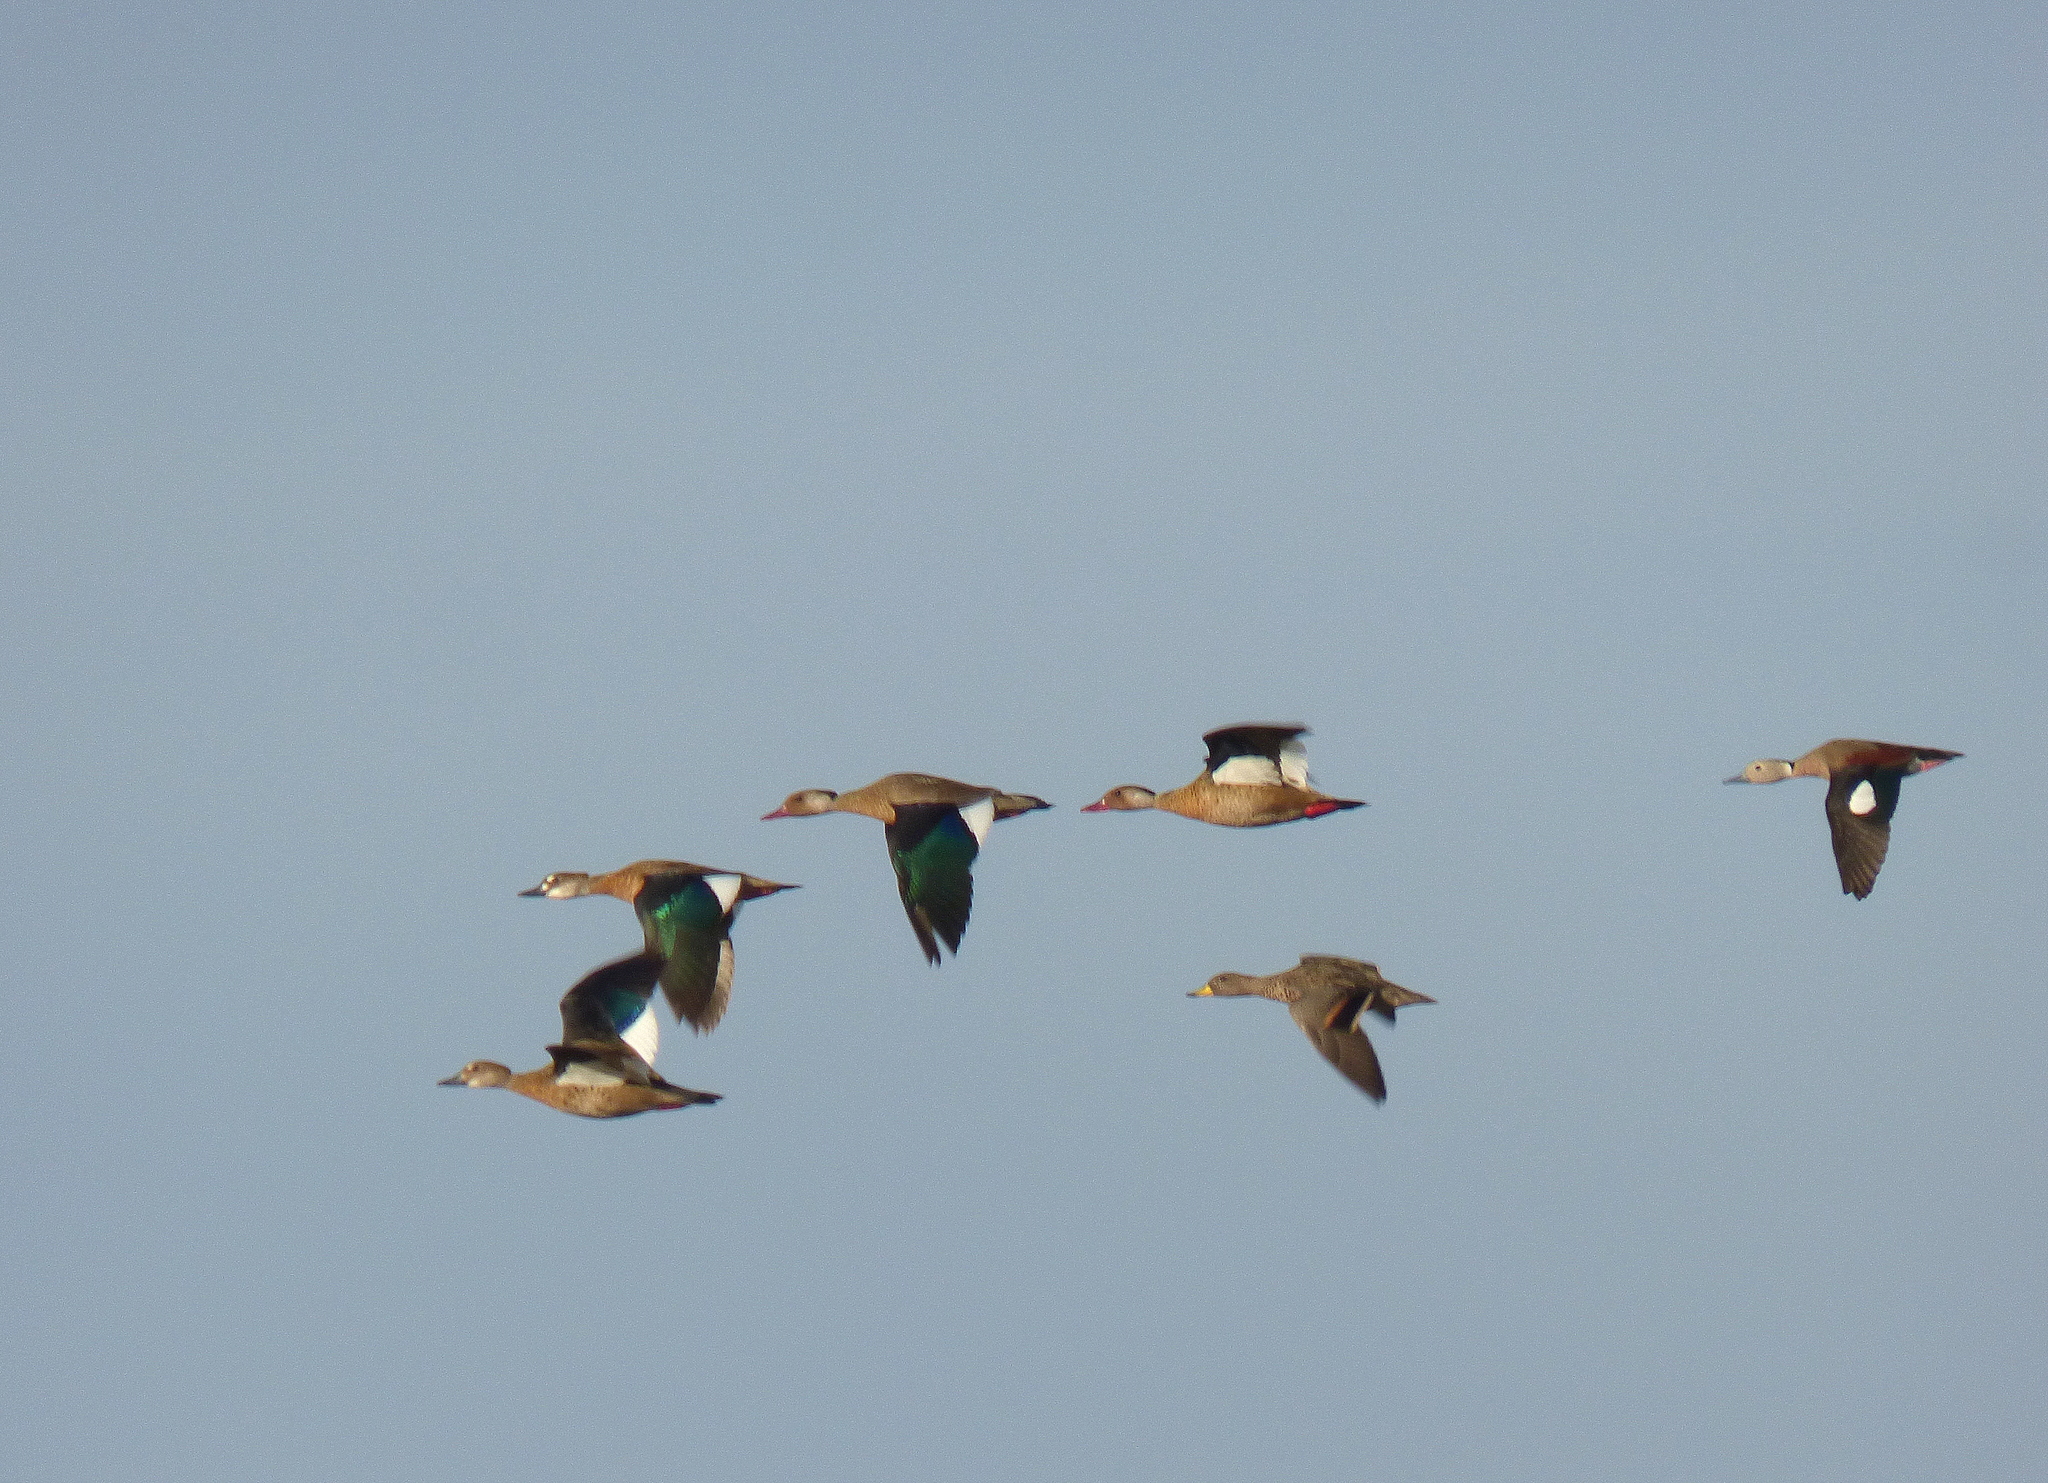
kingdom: Animalia
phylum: Chordata
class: Aves
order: Anseriformes
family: Anatidae
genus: Amazonetta
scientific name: Amazonetta brasiliensis
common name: Brazilian teal
